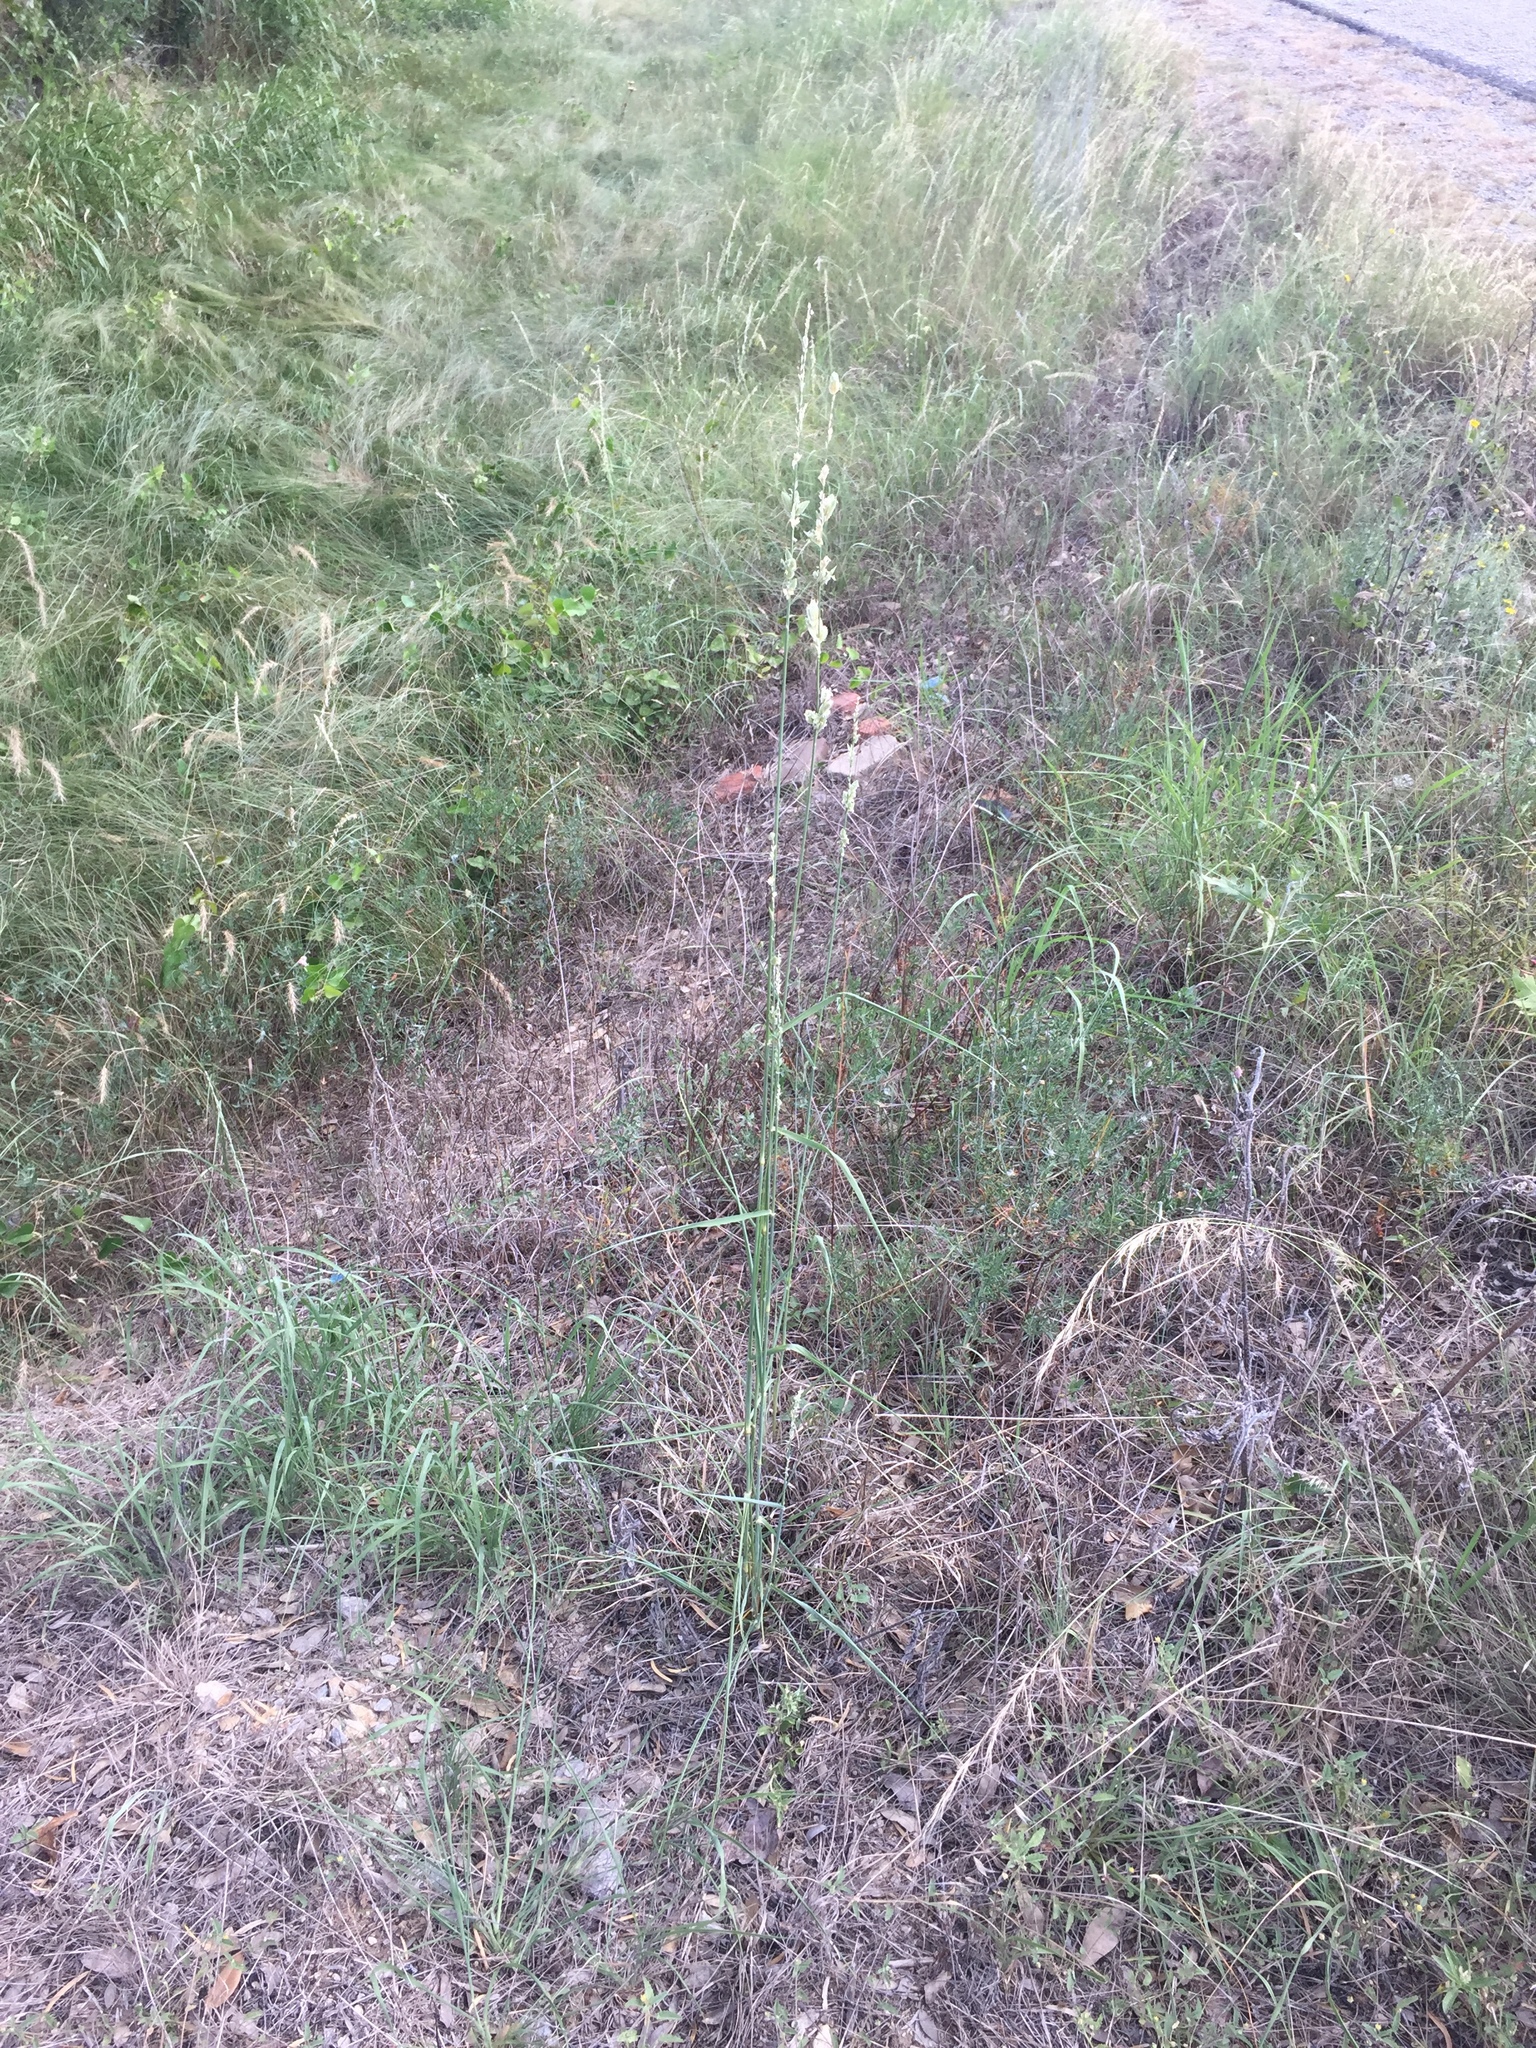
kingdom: Plantae
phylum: Tracheophyta
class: Liliopsida
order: Poales
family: Poaceae
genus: Eragrostis
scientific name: Eragrostis superba
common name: Wilman lovegrass
